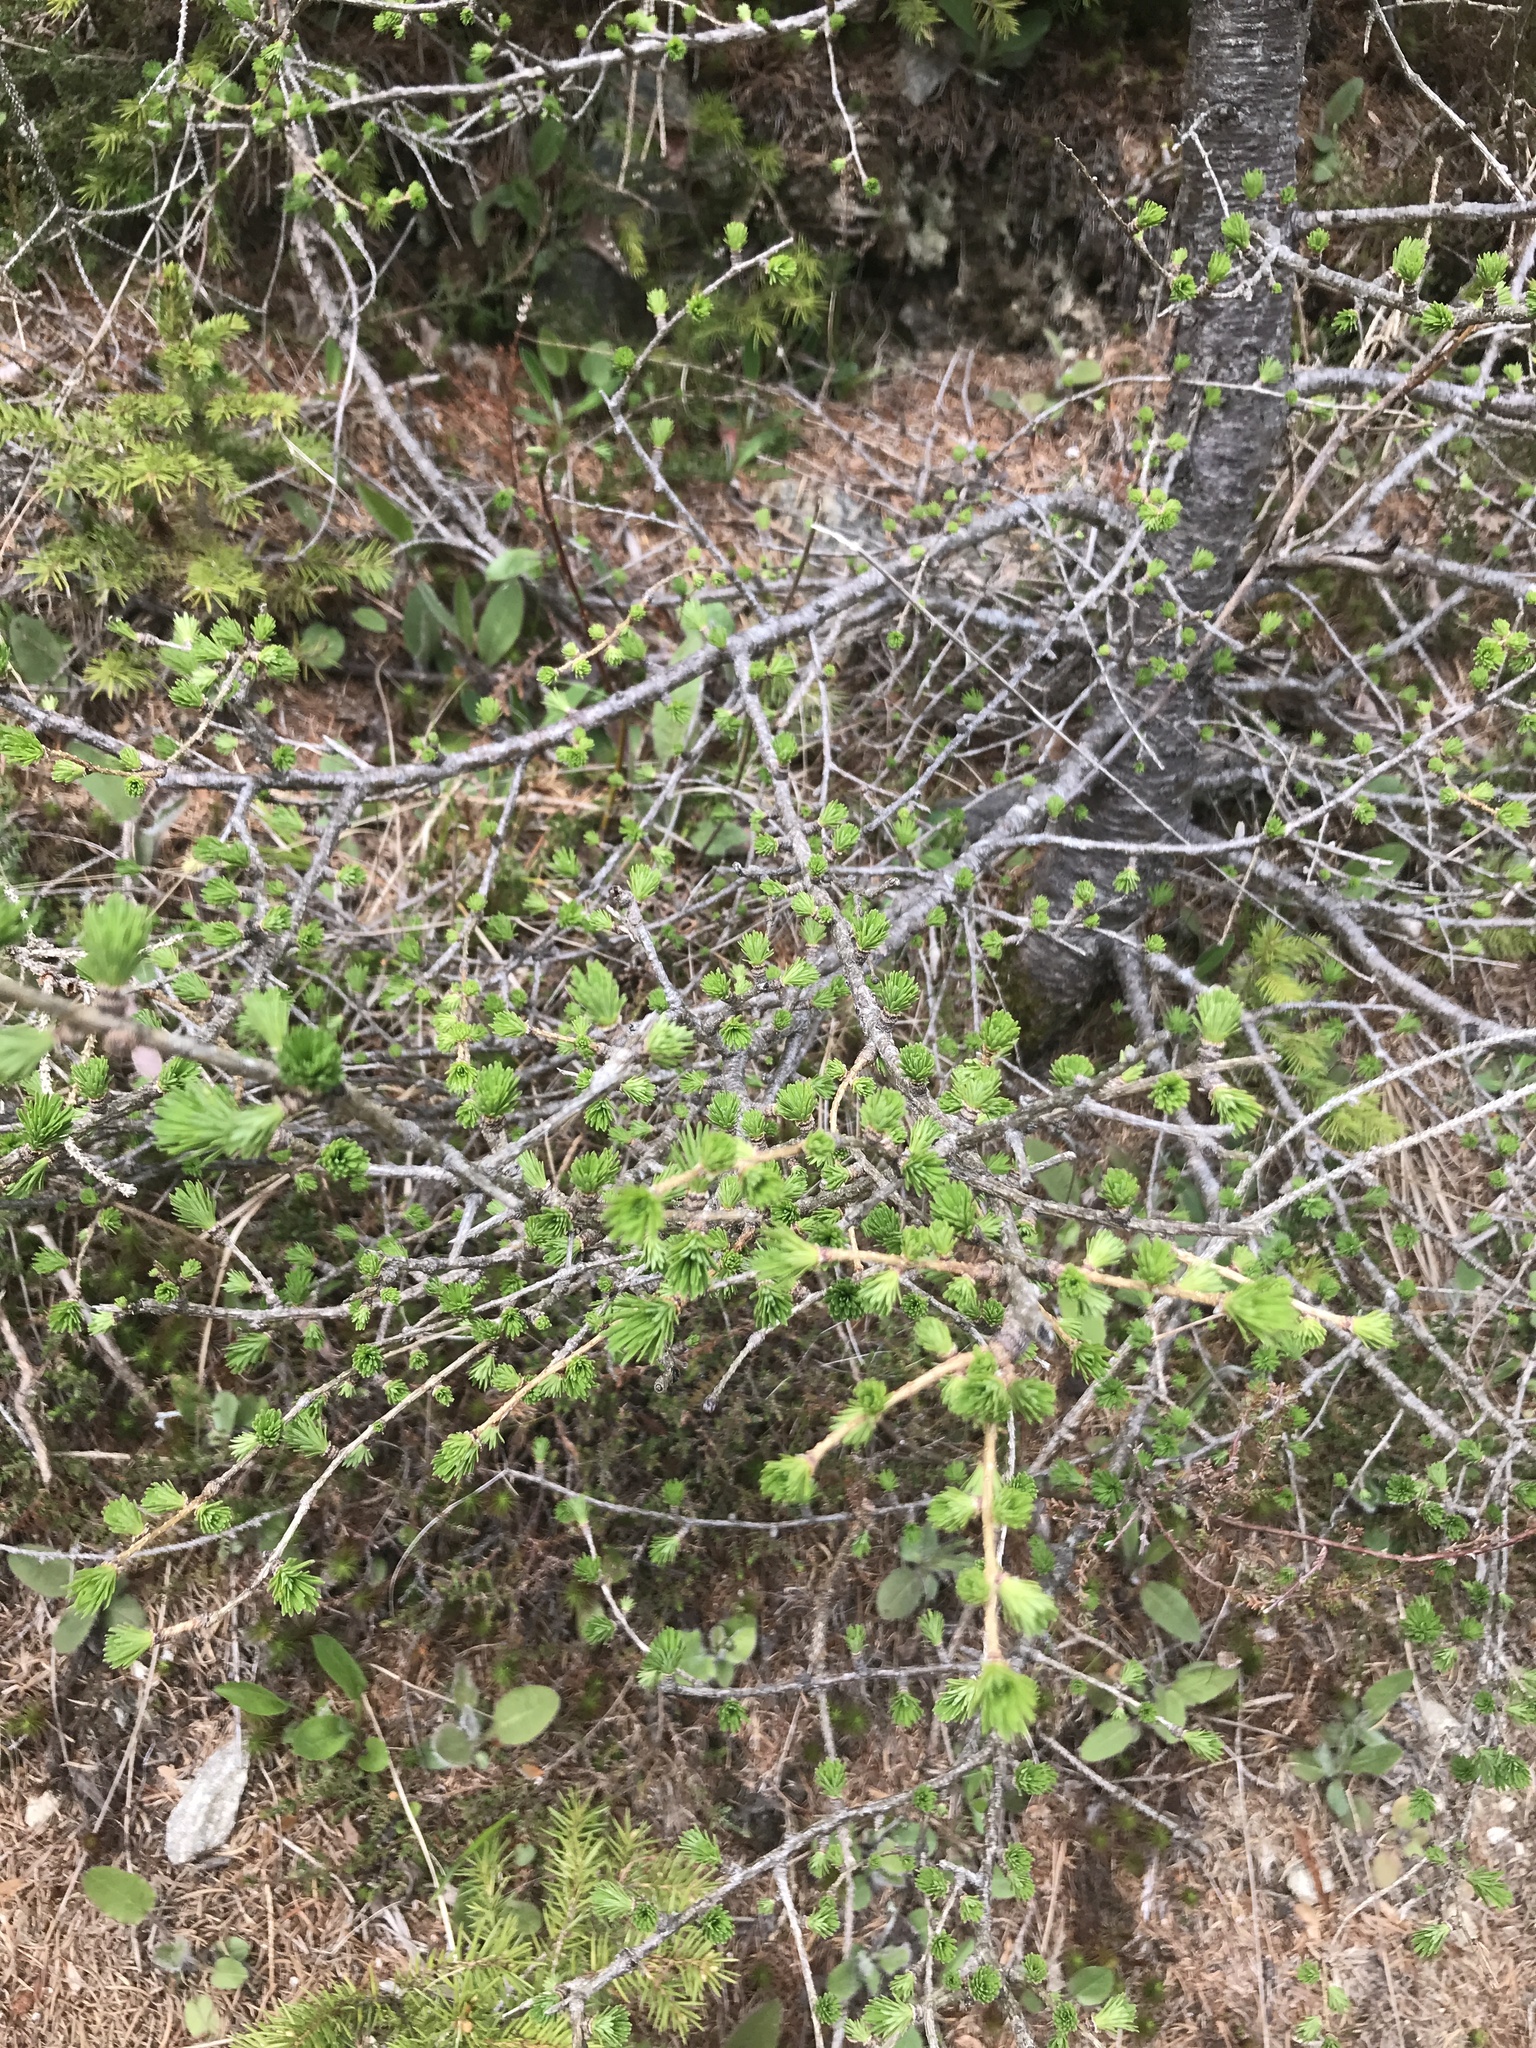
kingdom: Plantae
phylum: Tracheophyta
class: Pinopsida
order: Pinales
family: Pinaceae
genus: Larix
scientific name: Larix decidua
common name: European larch
